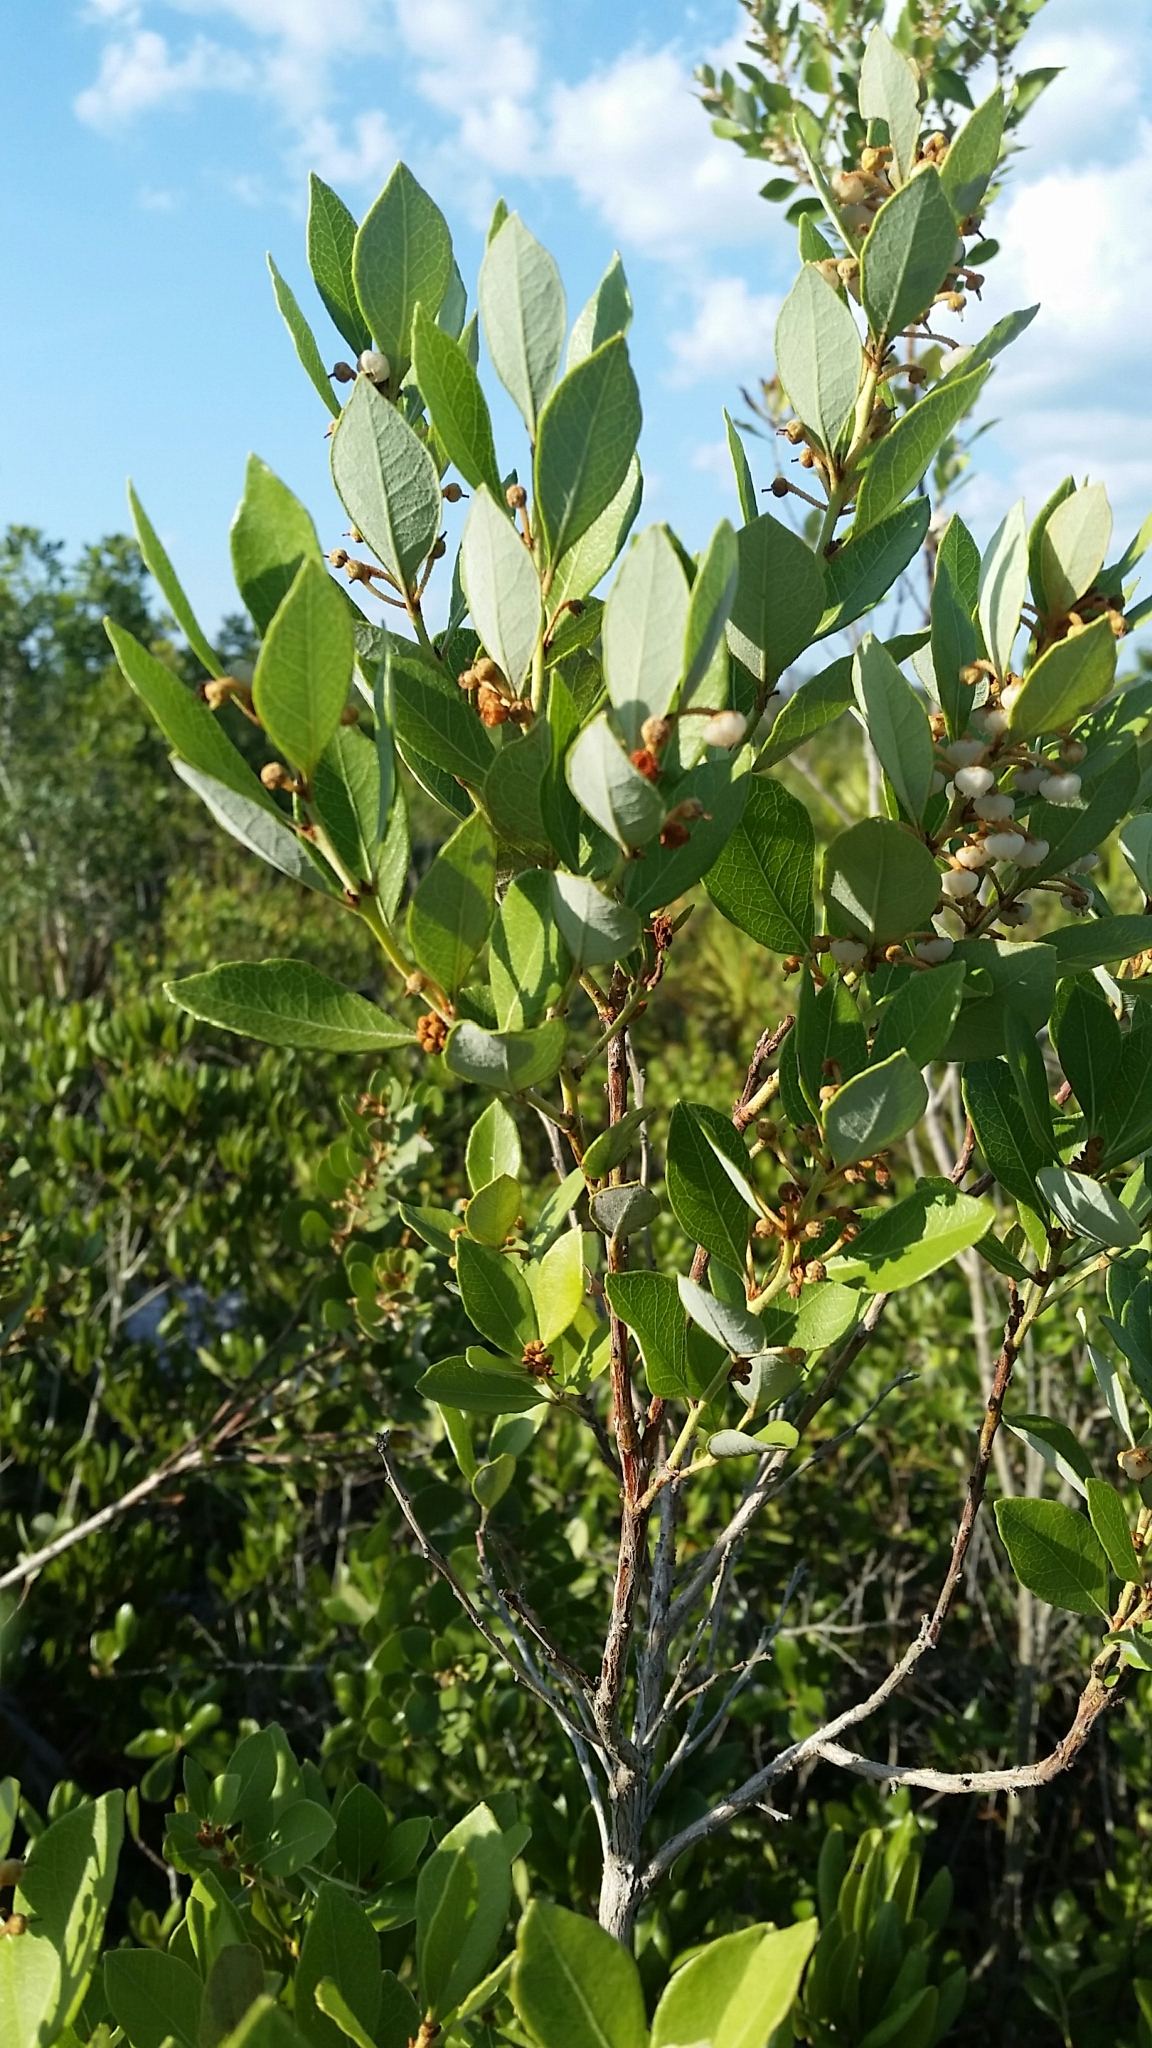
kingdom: Plantae
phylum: Tracheophyta
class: Magnoliopsida
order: Ericales
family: Ericaceae
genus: Lyonia
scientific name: Lyonia fruticosa
